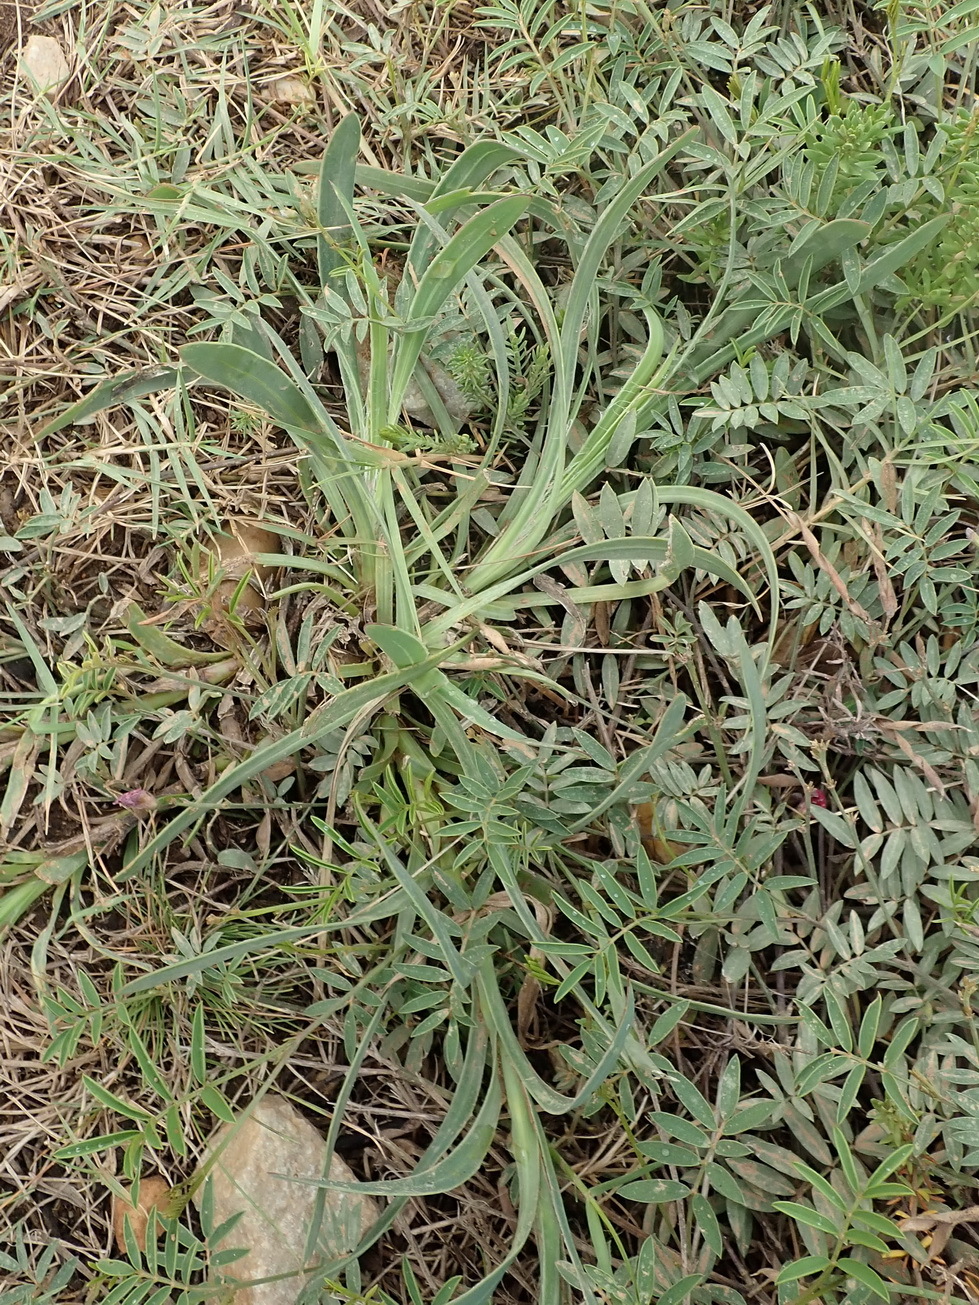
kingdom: Plantae
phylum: Tracheophyta
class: Magnoliopsida
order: Asterales
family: Asteraceae
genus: Osteospermum
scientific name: Osteospermum imbricatum
